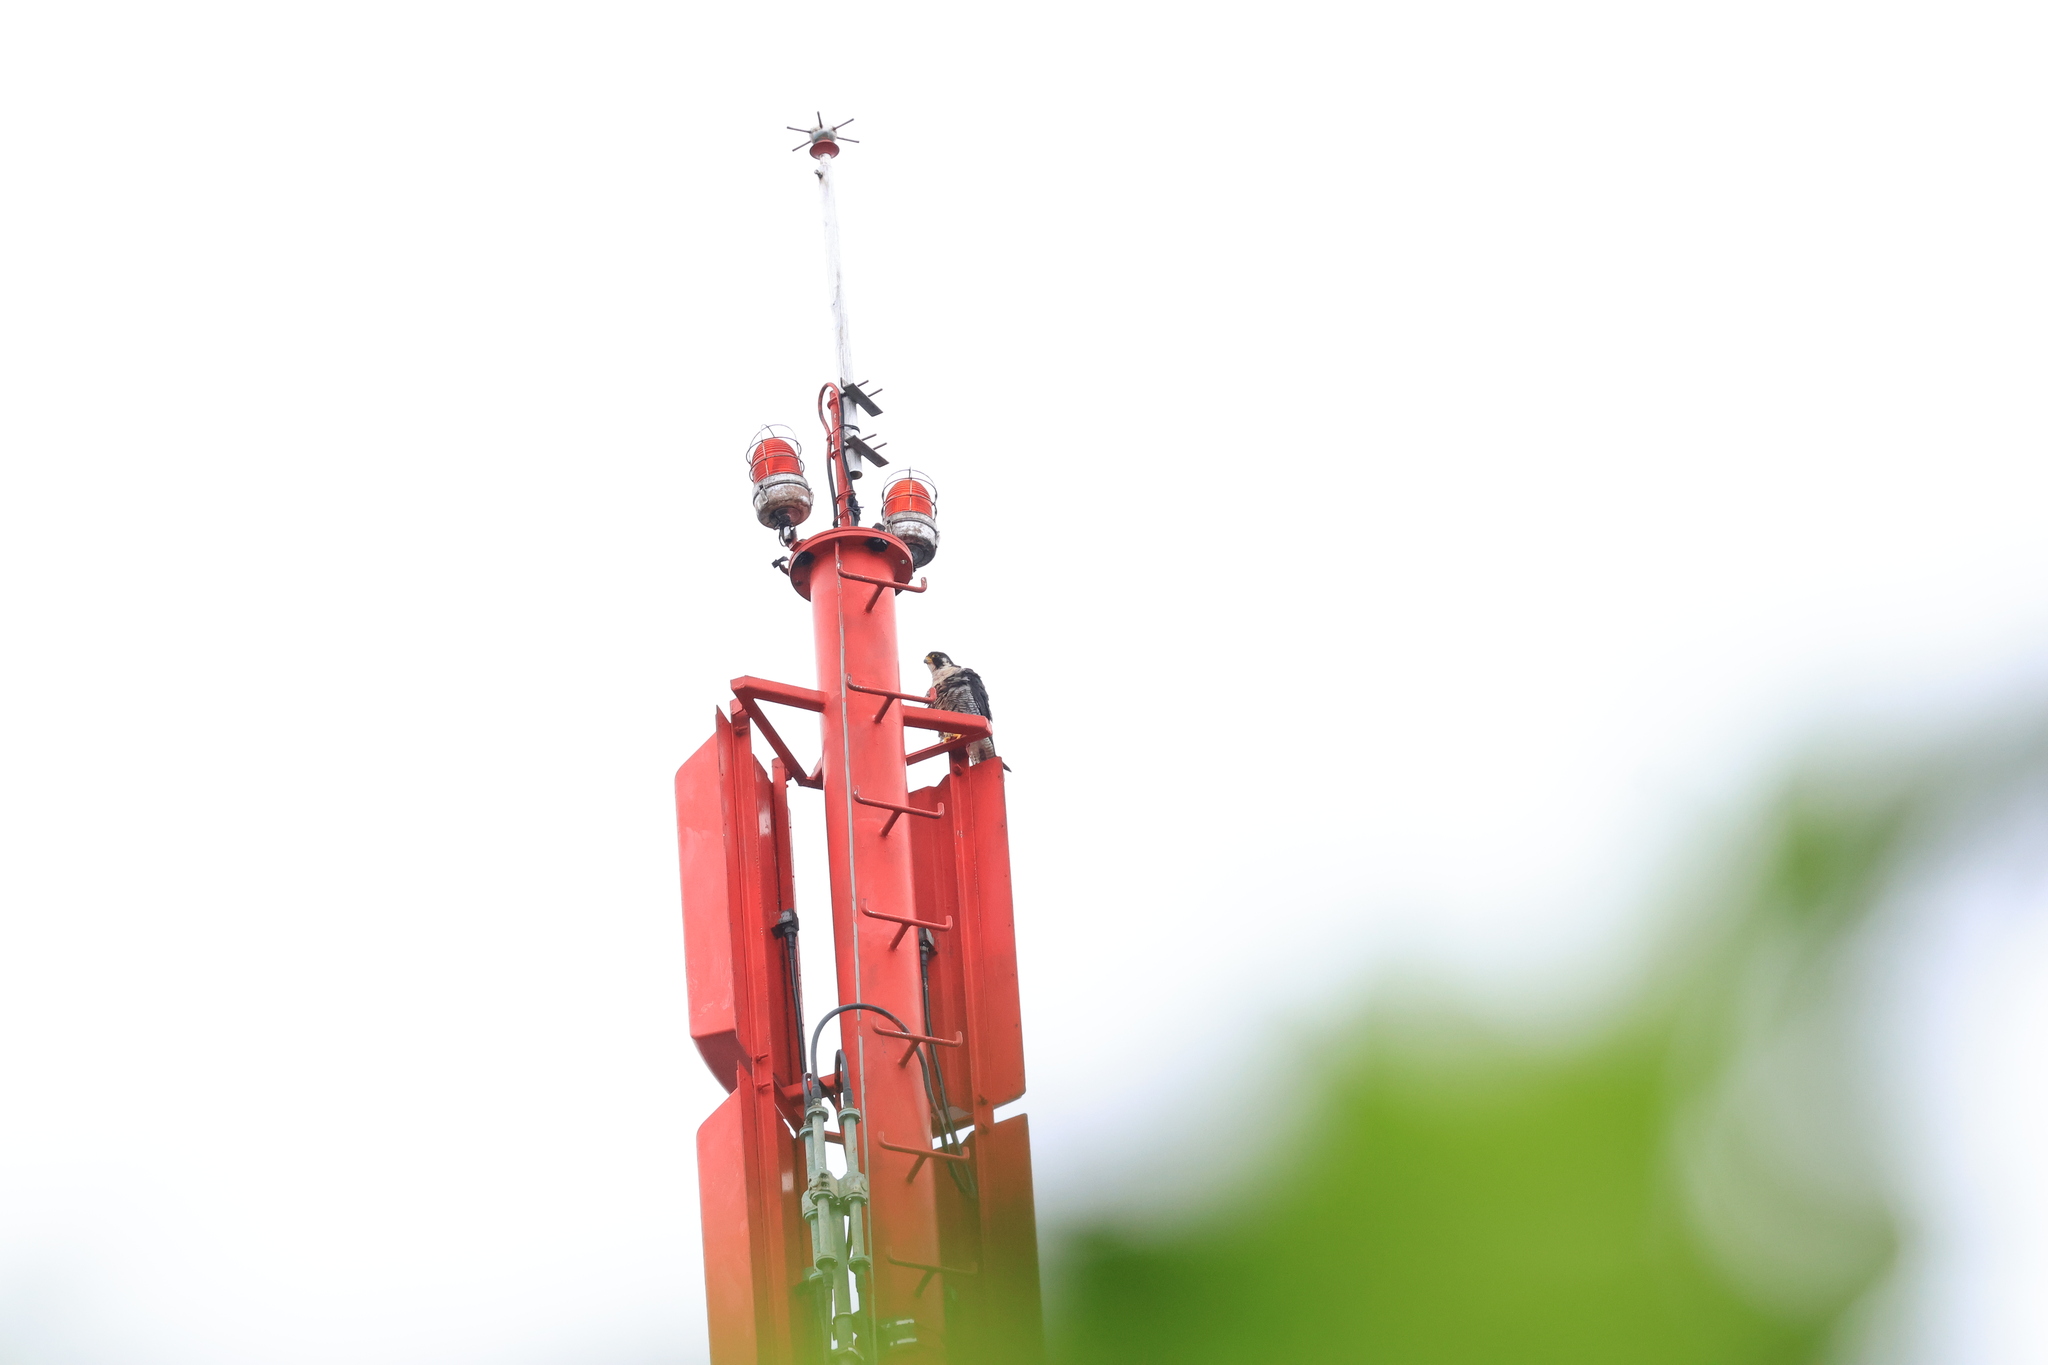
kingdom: Animalia
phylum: Chordata
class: Aves
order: Falconiformes
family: Falconidae
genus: Falco
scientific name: Falco peregrinus
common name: Peregrine falcon
